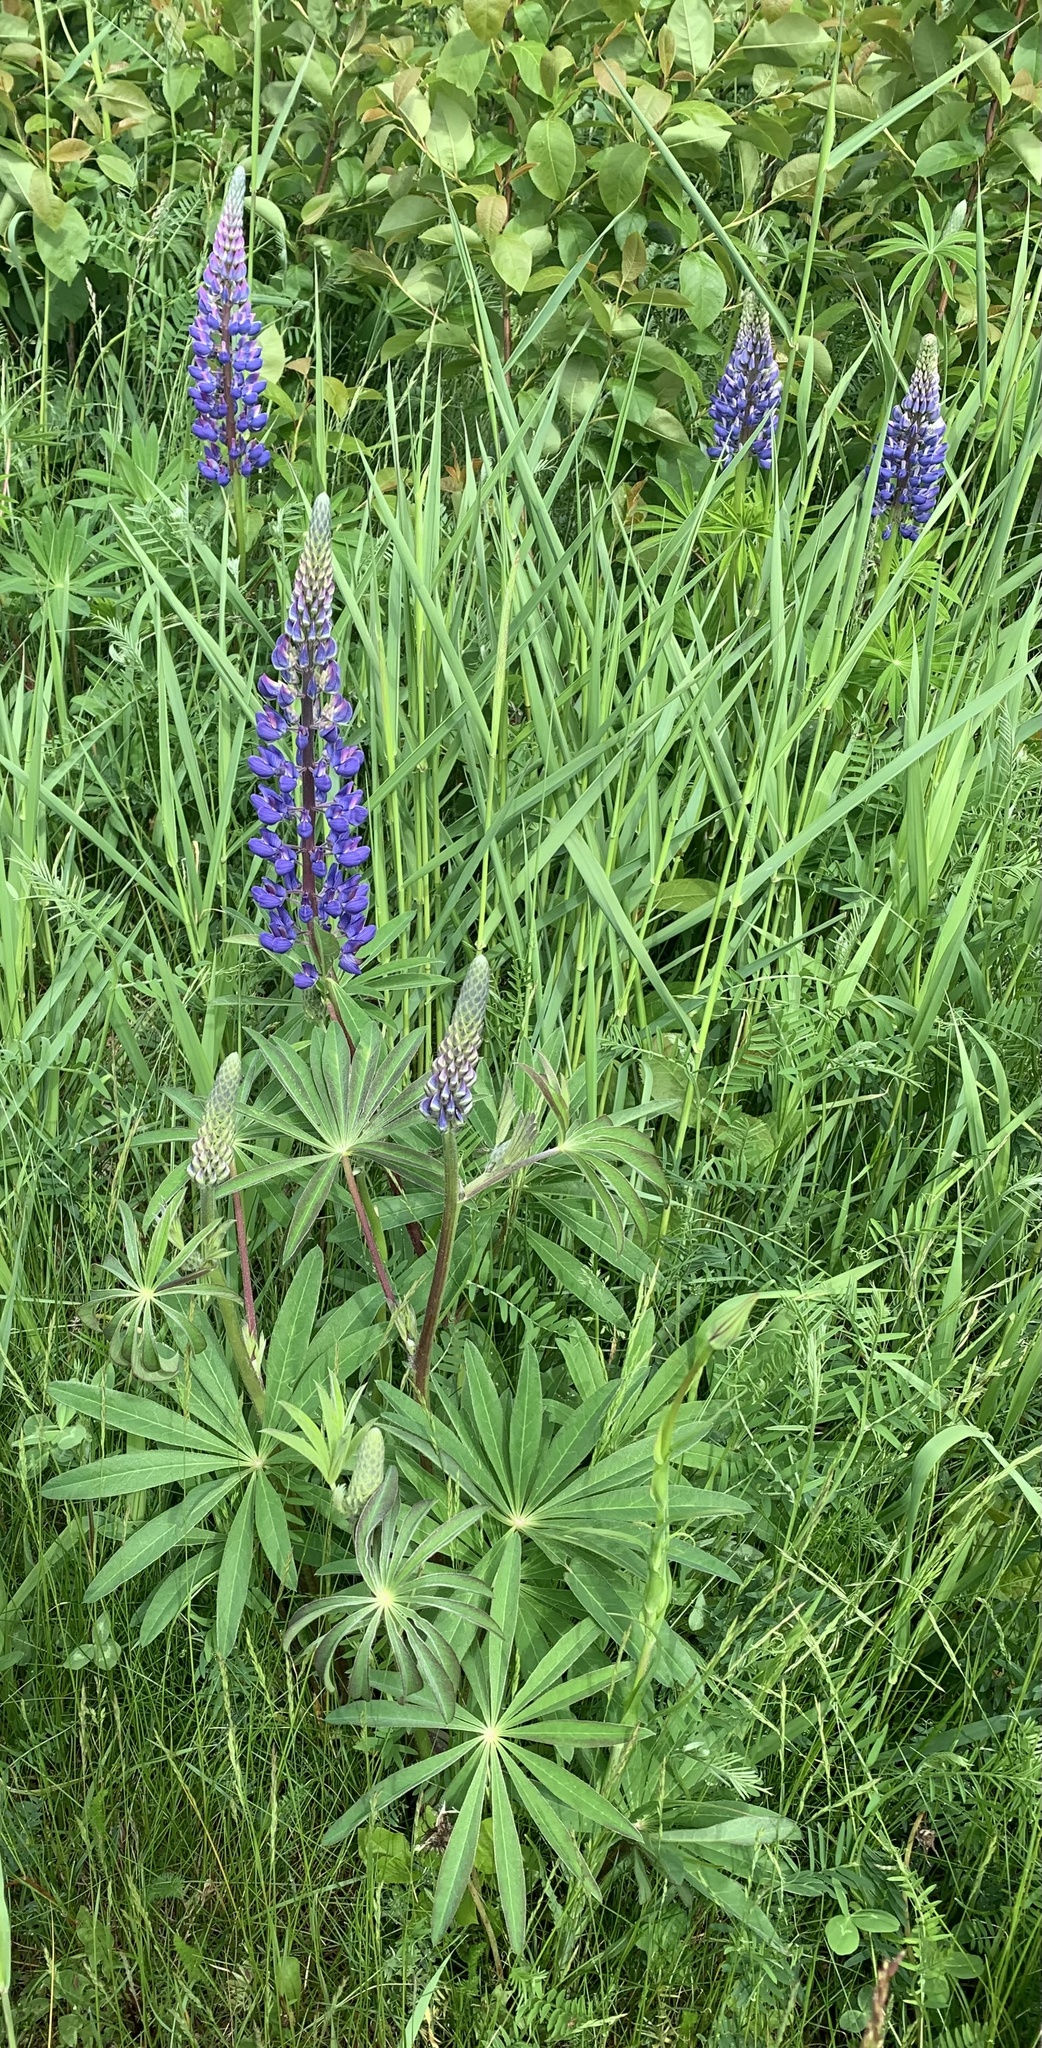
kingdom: Plantae
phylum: Tracheophyta
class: Magnoliopsida
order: Fabales
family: Fabaceae
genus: Lupinus
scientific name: Lupinus polyphyllus
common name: Garden lupin
